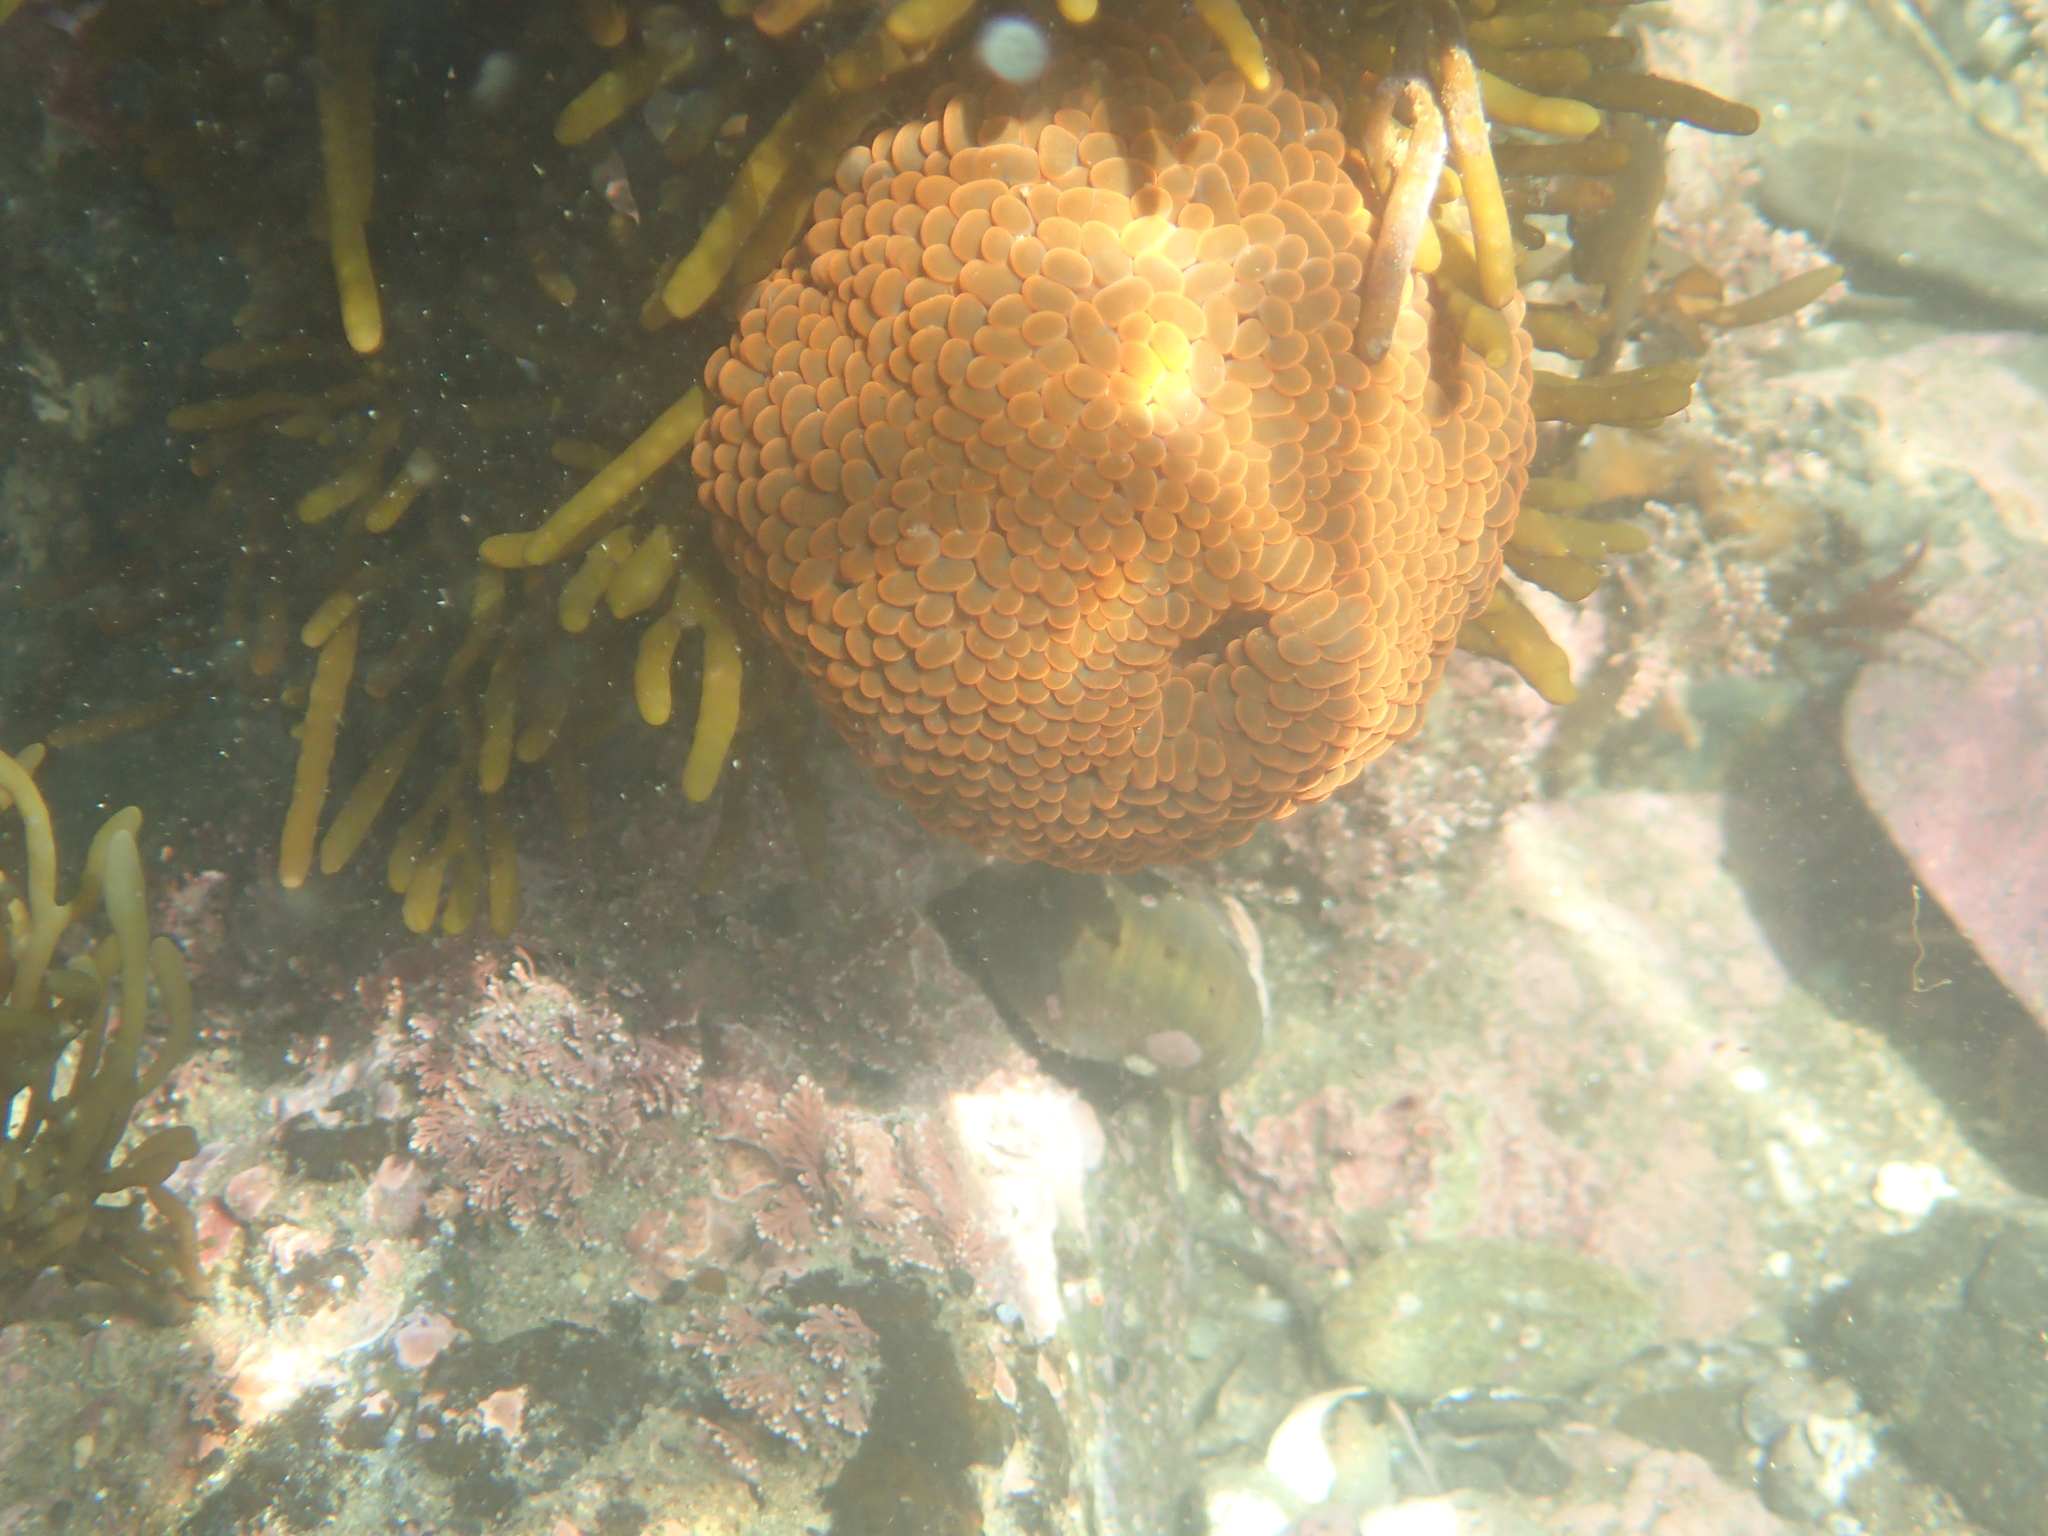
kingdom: Animalia
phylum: Cnidaria
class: Anthozoa
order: Actiniaria
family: Actiniidae
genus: Phlyctenactis
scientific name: Phlyctenactis tuberculosa
